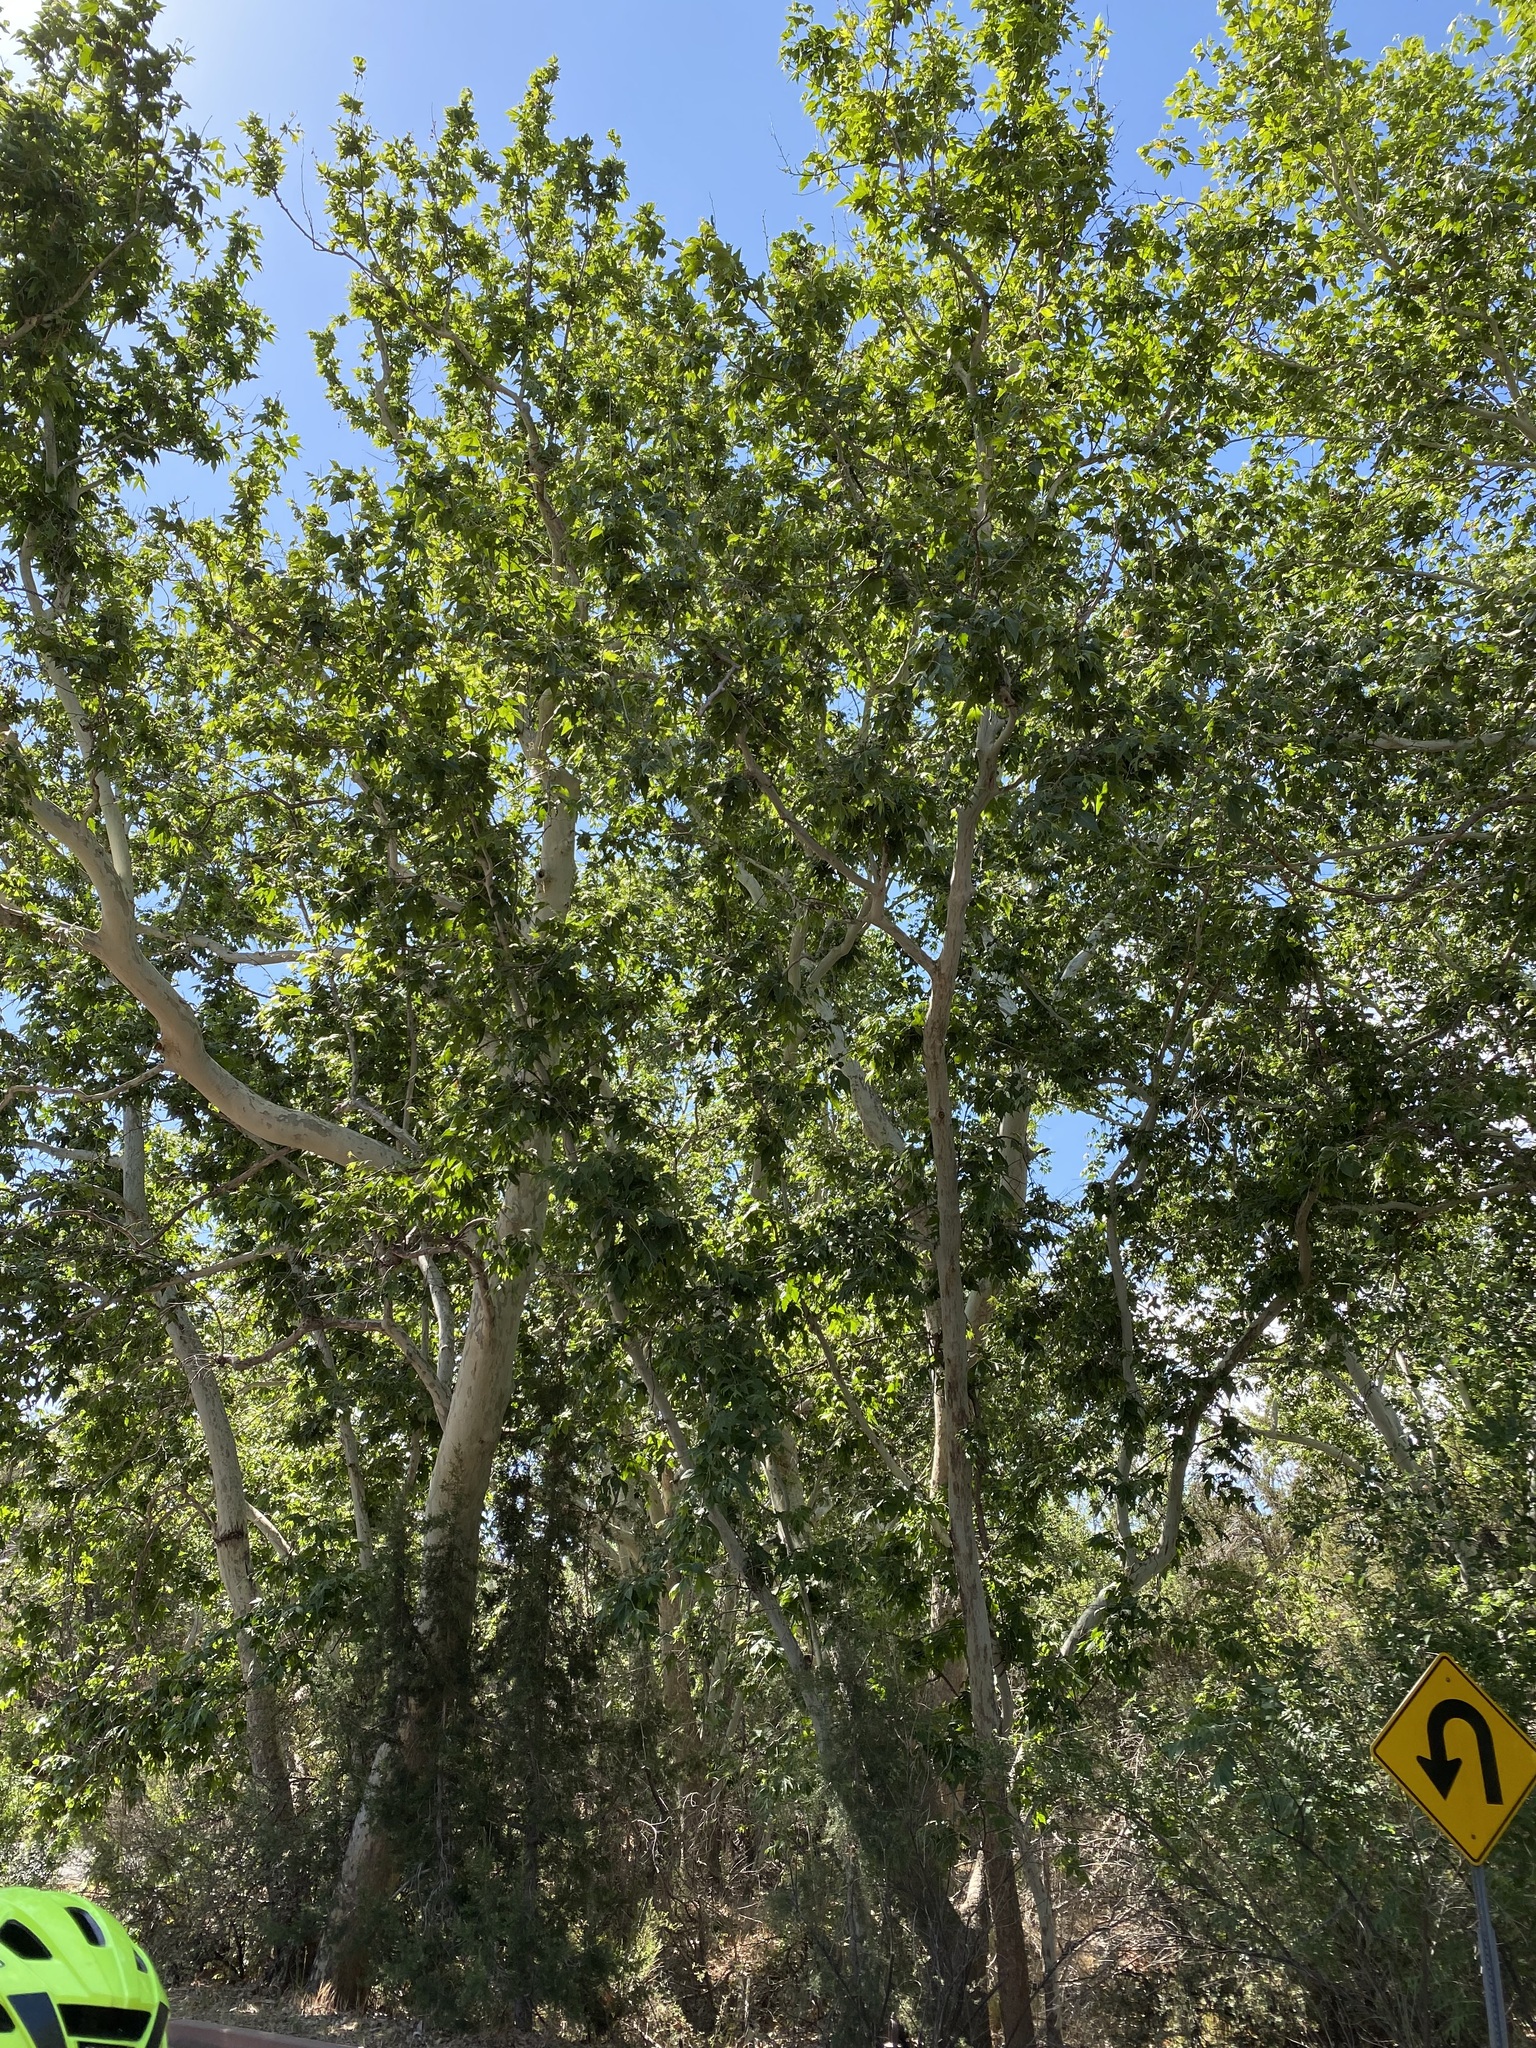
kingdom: Plantae
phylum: Tracheophyta
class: Magnoliopsida
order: Proteales
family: Platanaceae
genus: Platanus
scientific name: Platanus wrightii
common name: Arizona sycamore
